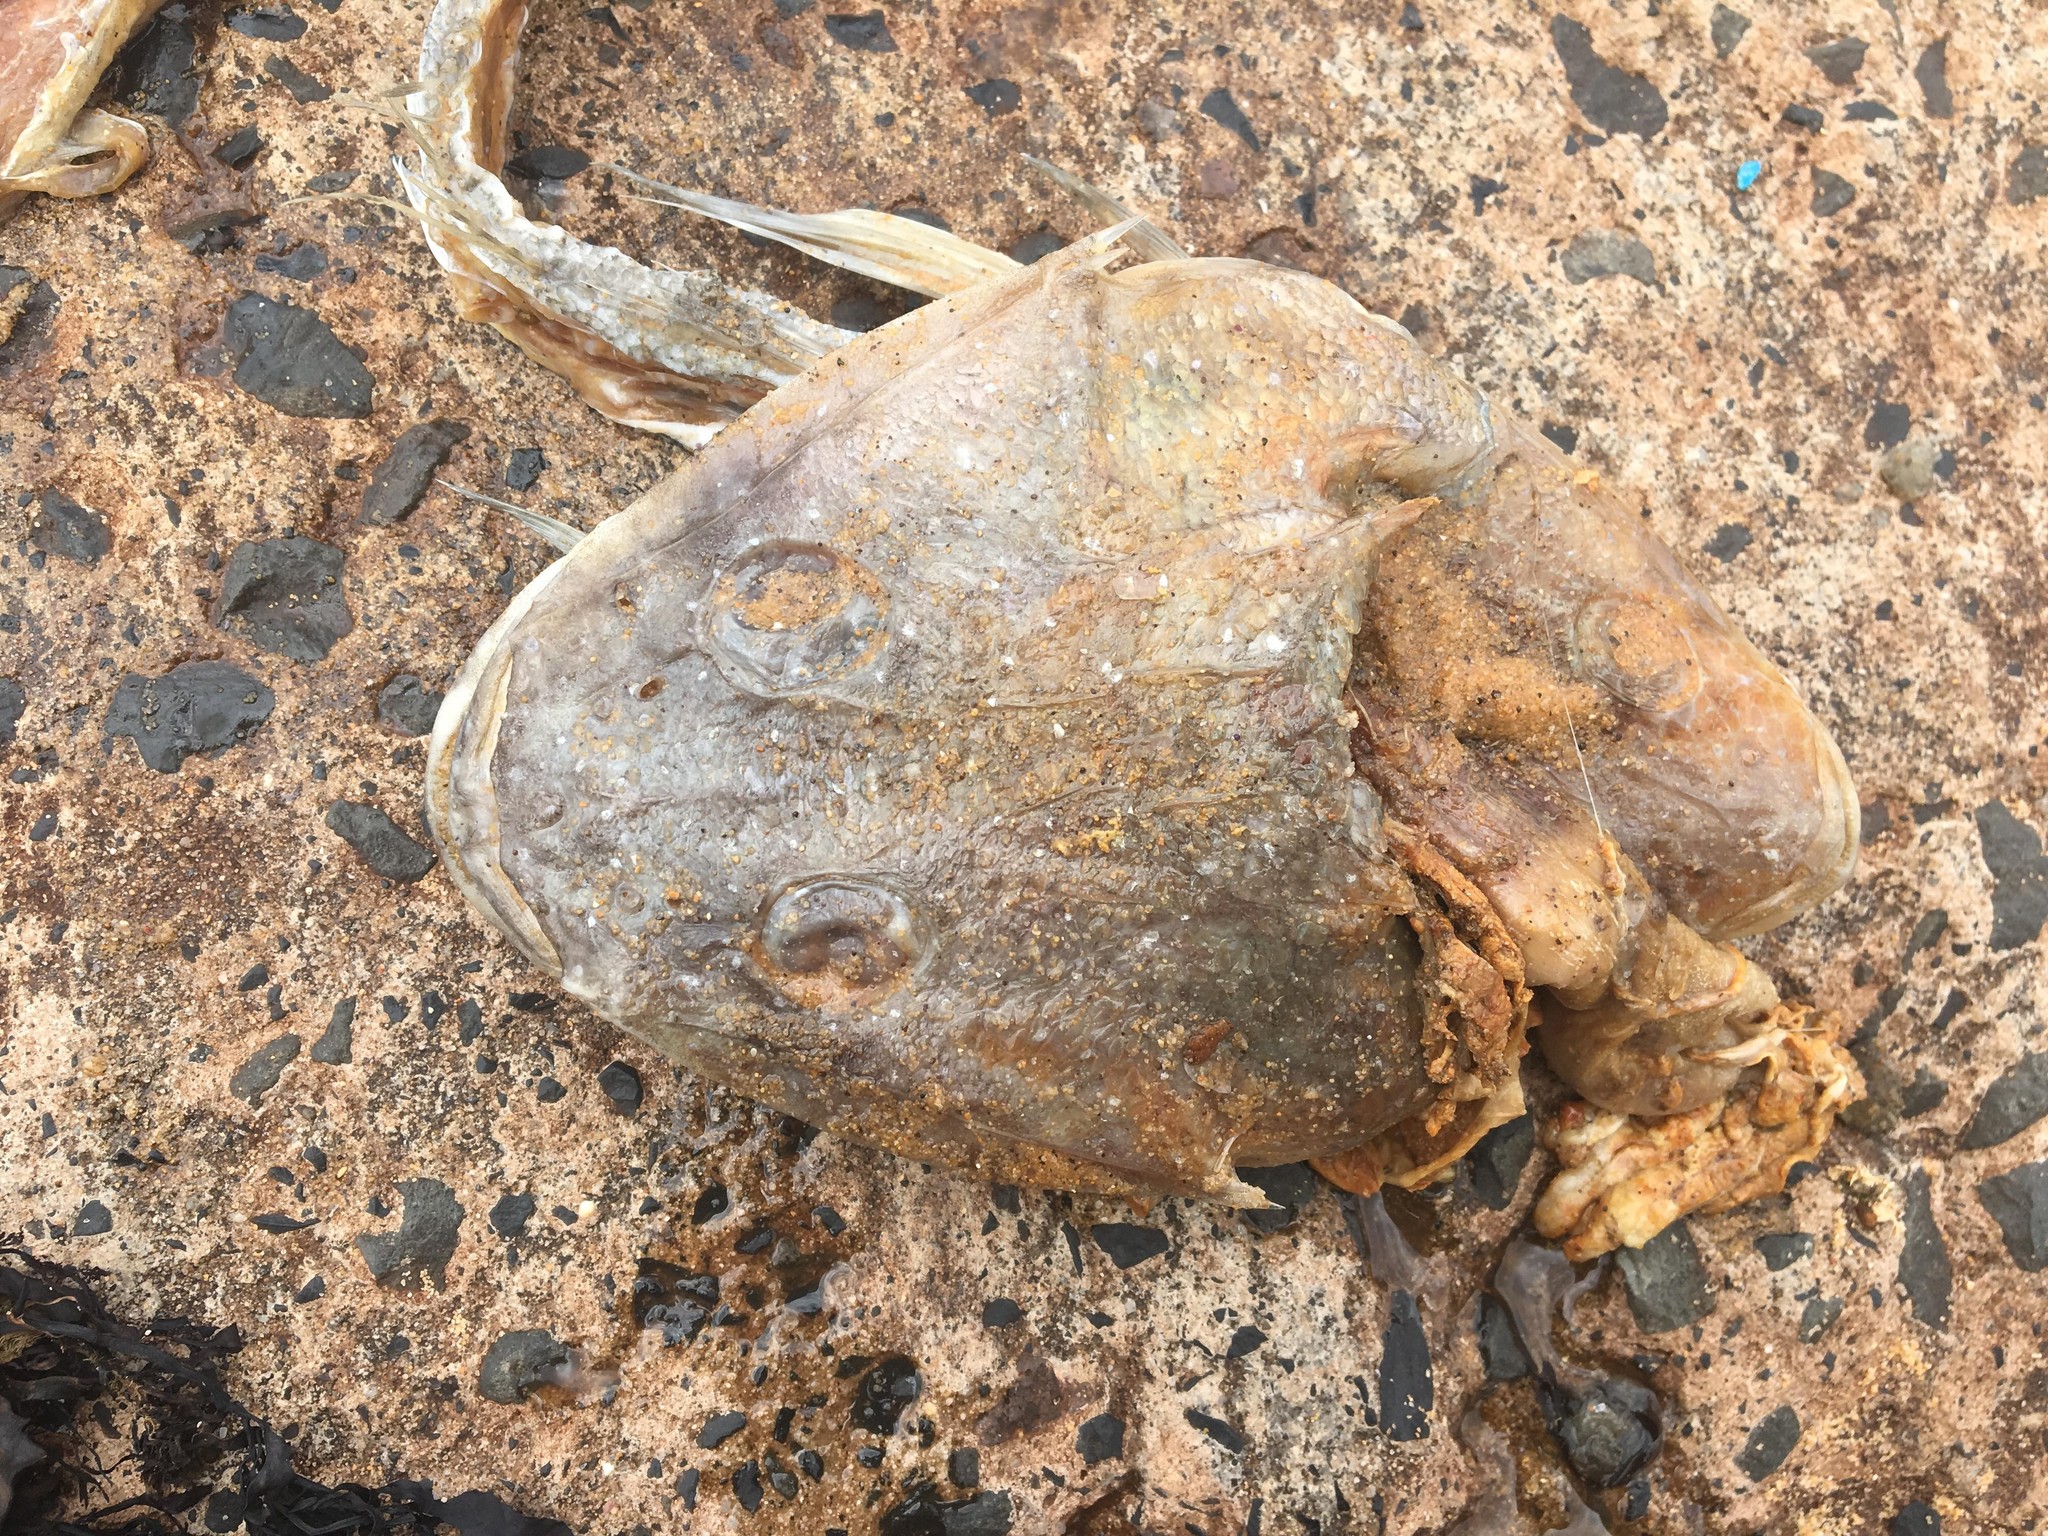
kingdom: Animalia
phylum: Chordata
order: Scorpaeniformes
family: Platycephalidae
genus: Platycephalus
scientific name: Platycephalus fuscus
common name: Dusky flathead
